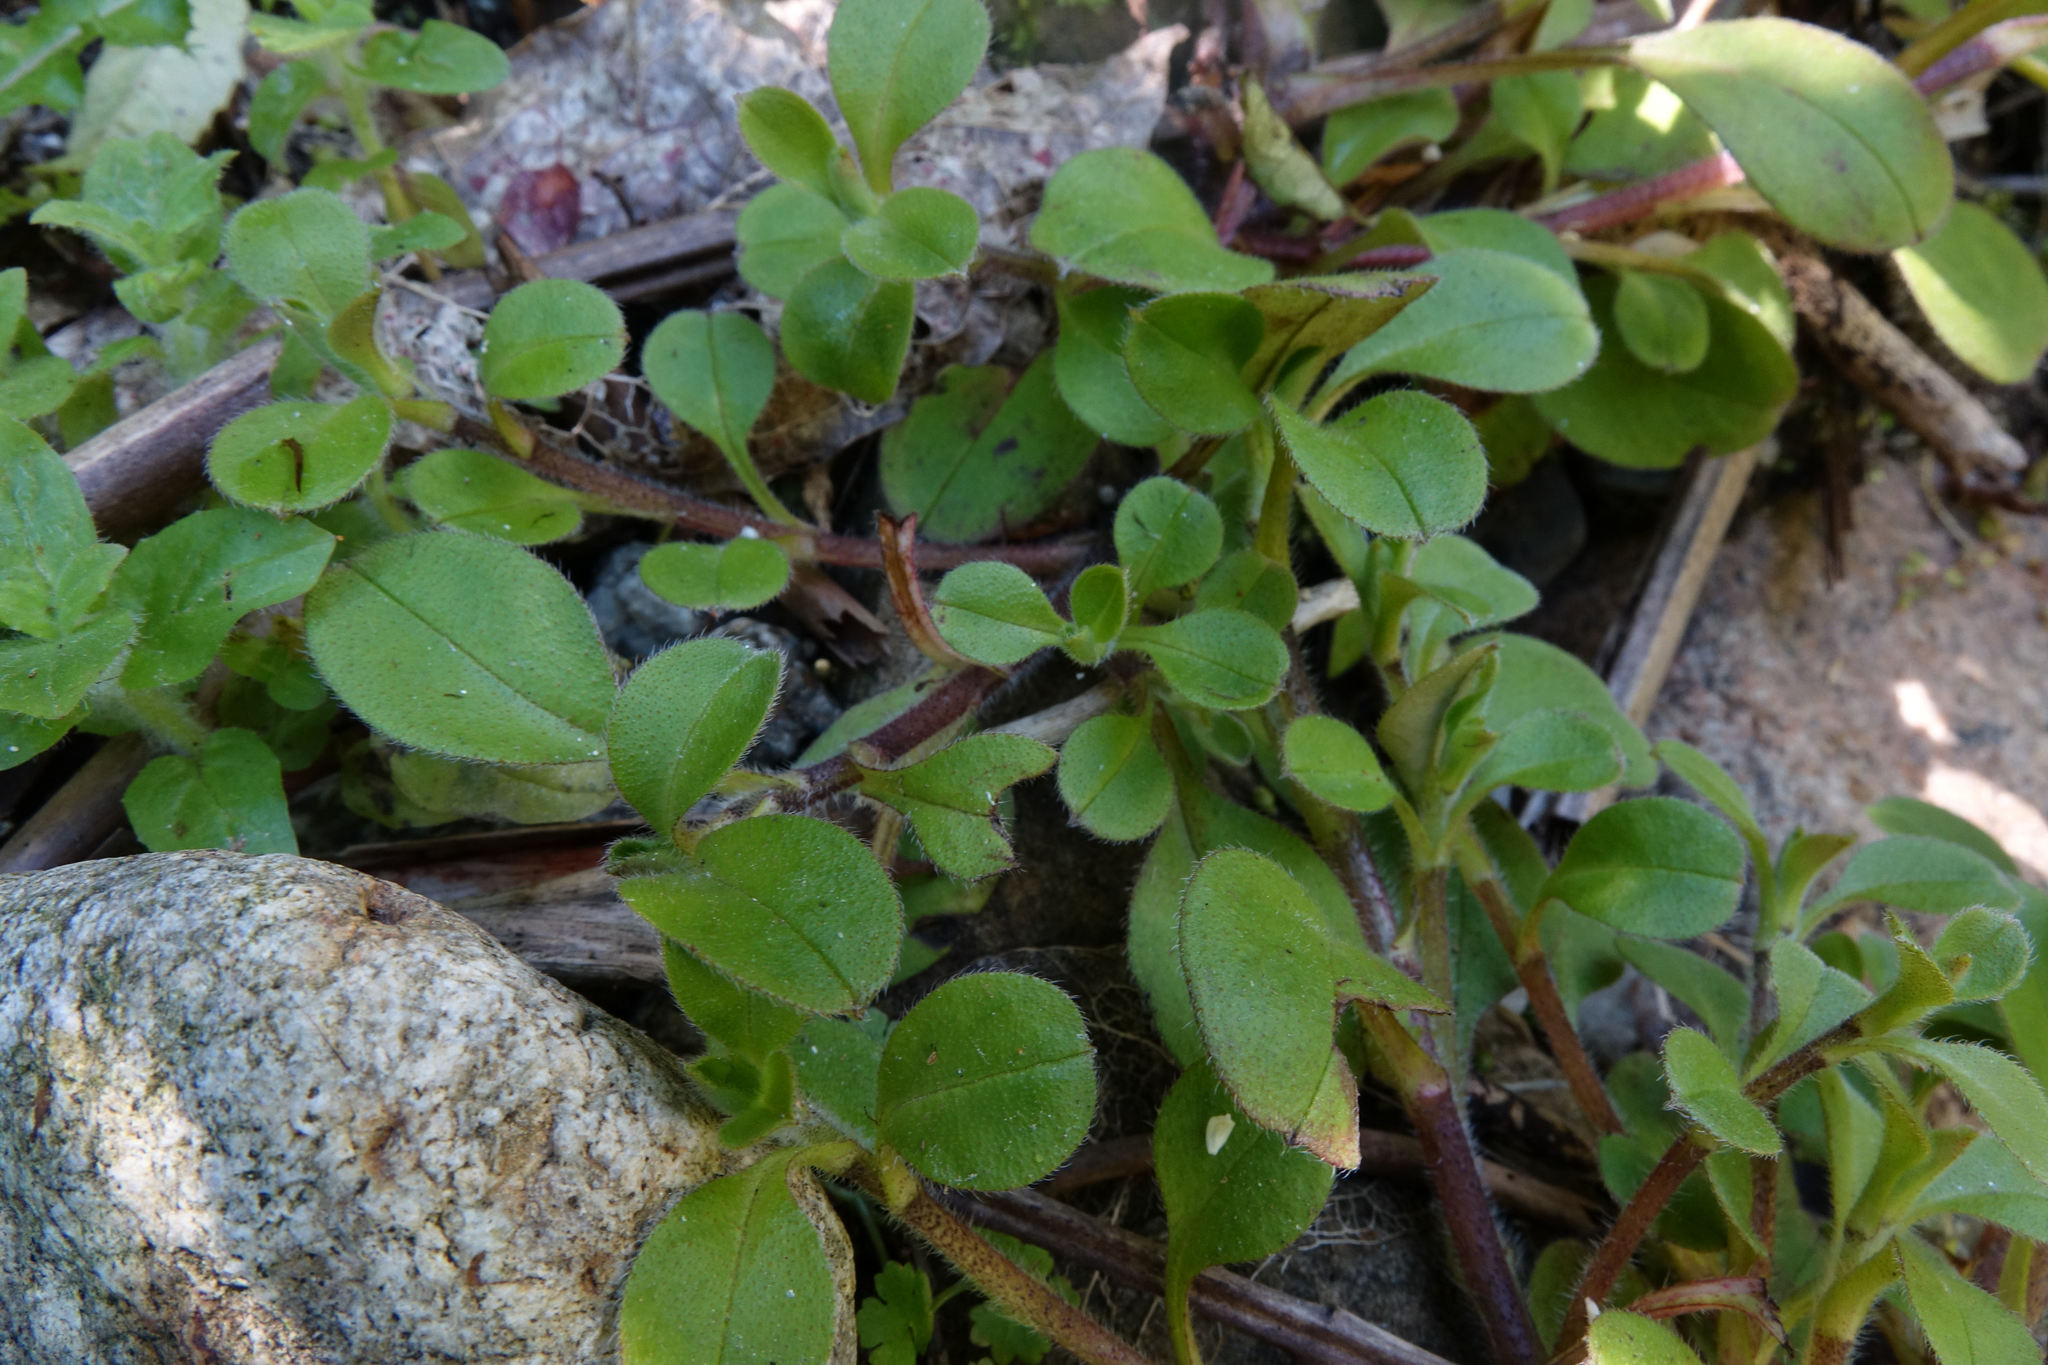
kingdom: Plantae
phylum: Tracheophyta
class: Magnoliopsida
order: Boraginales
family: Boraginaceae
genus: Myosotis
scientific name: Myosotis forsteri
